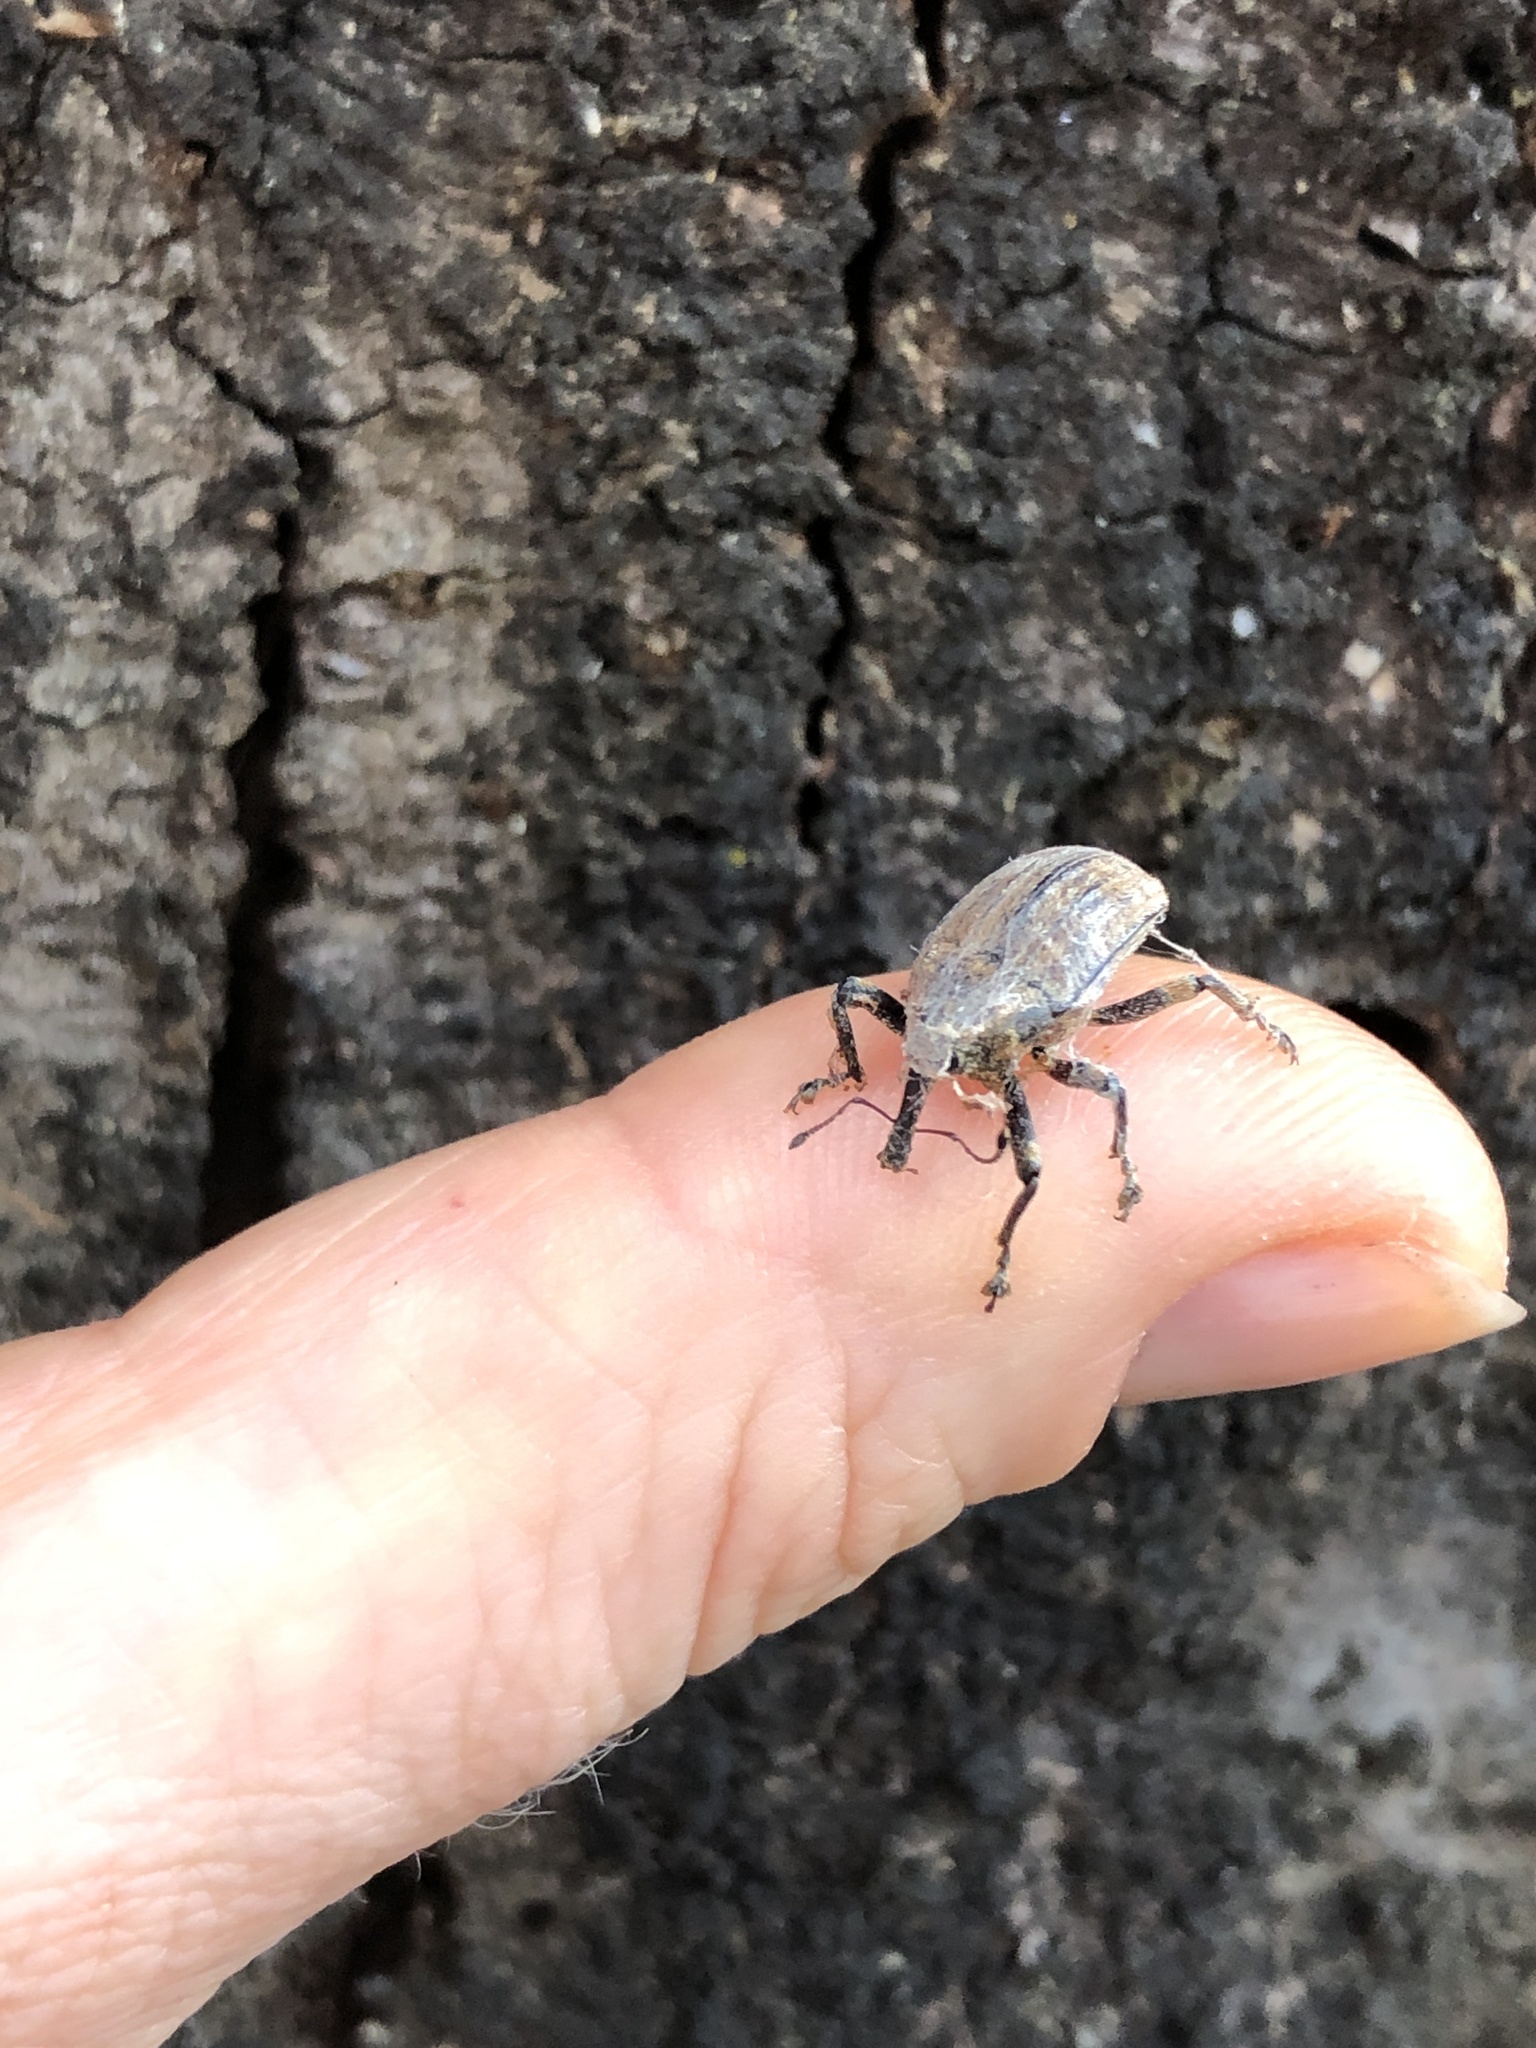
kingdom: Animalia
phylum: Arthropoda
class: Insecta
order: Coleoptera
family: Curculionidae
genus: Rhynchodes
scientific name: Rhynchodes ursus
